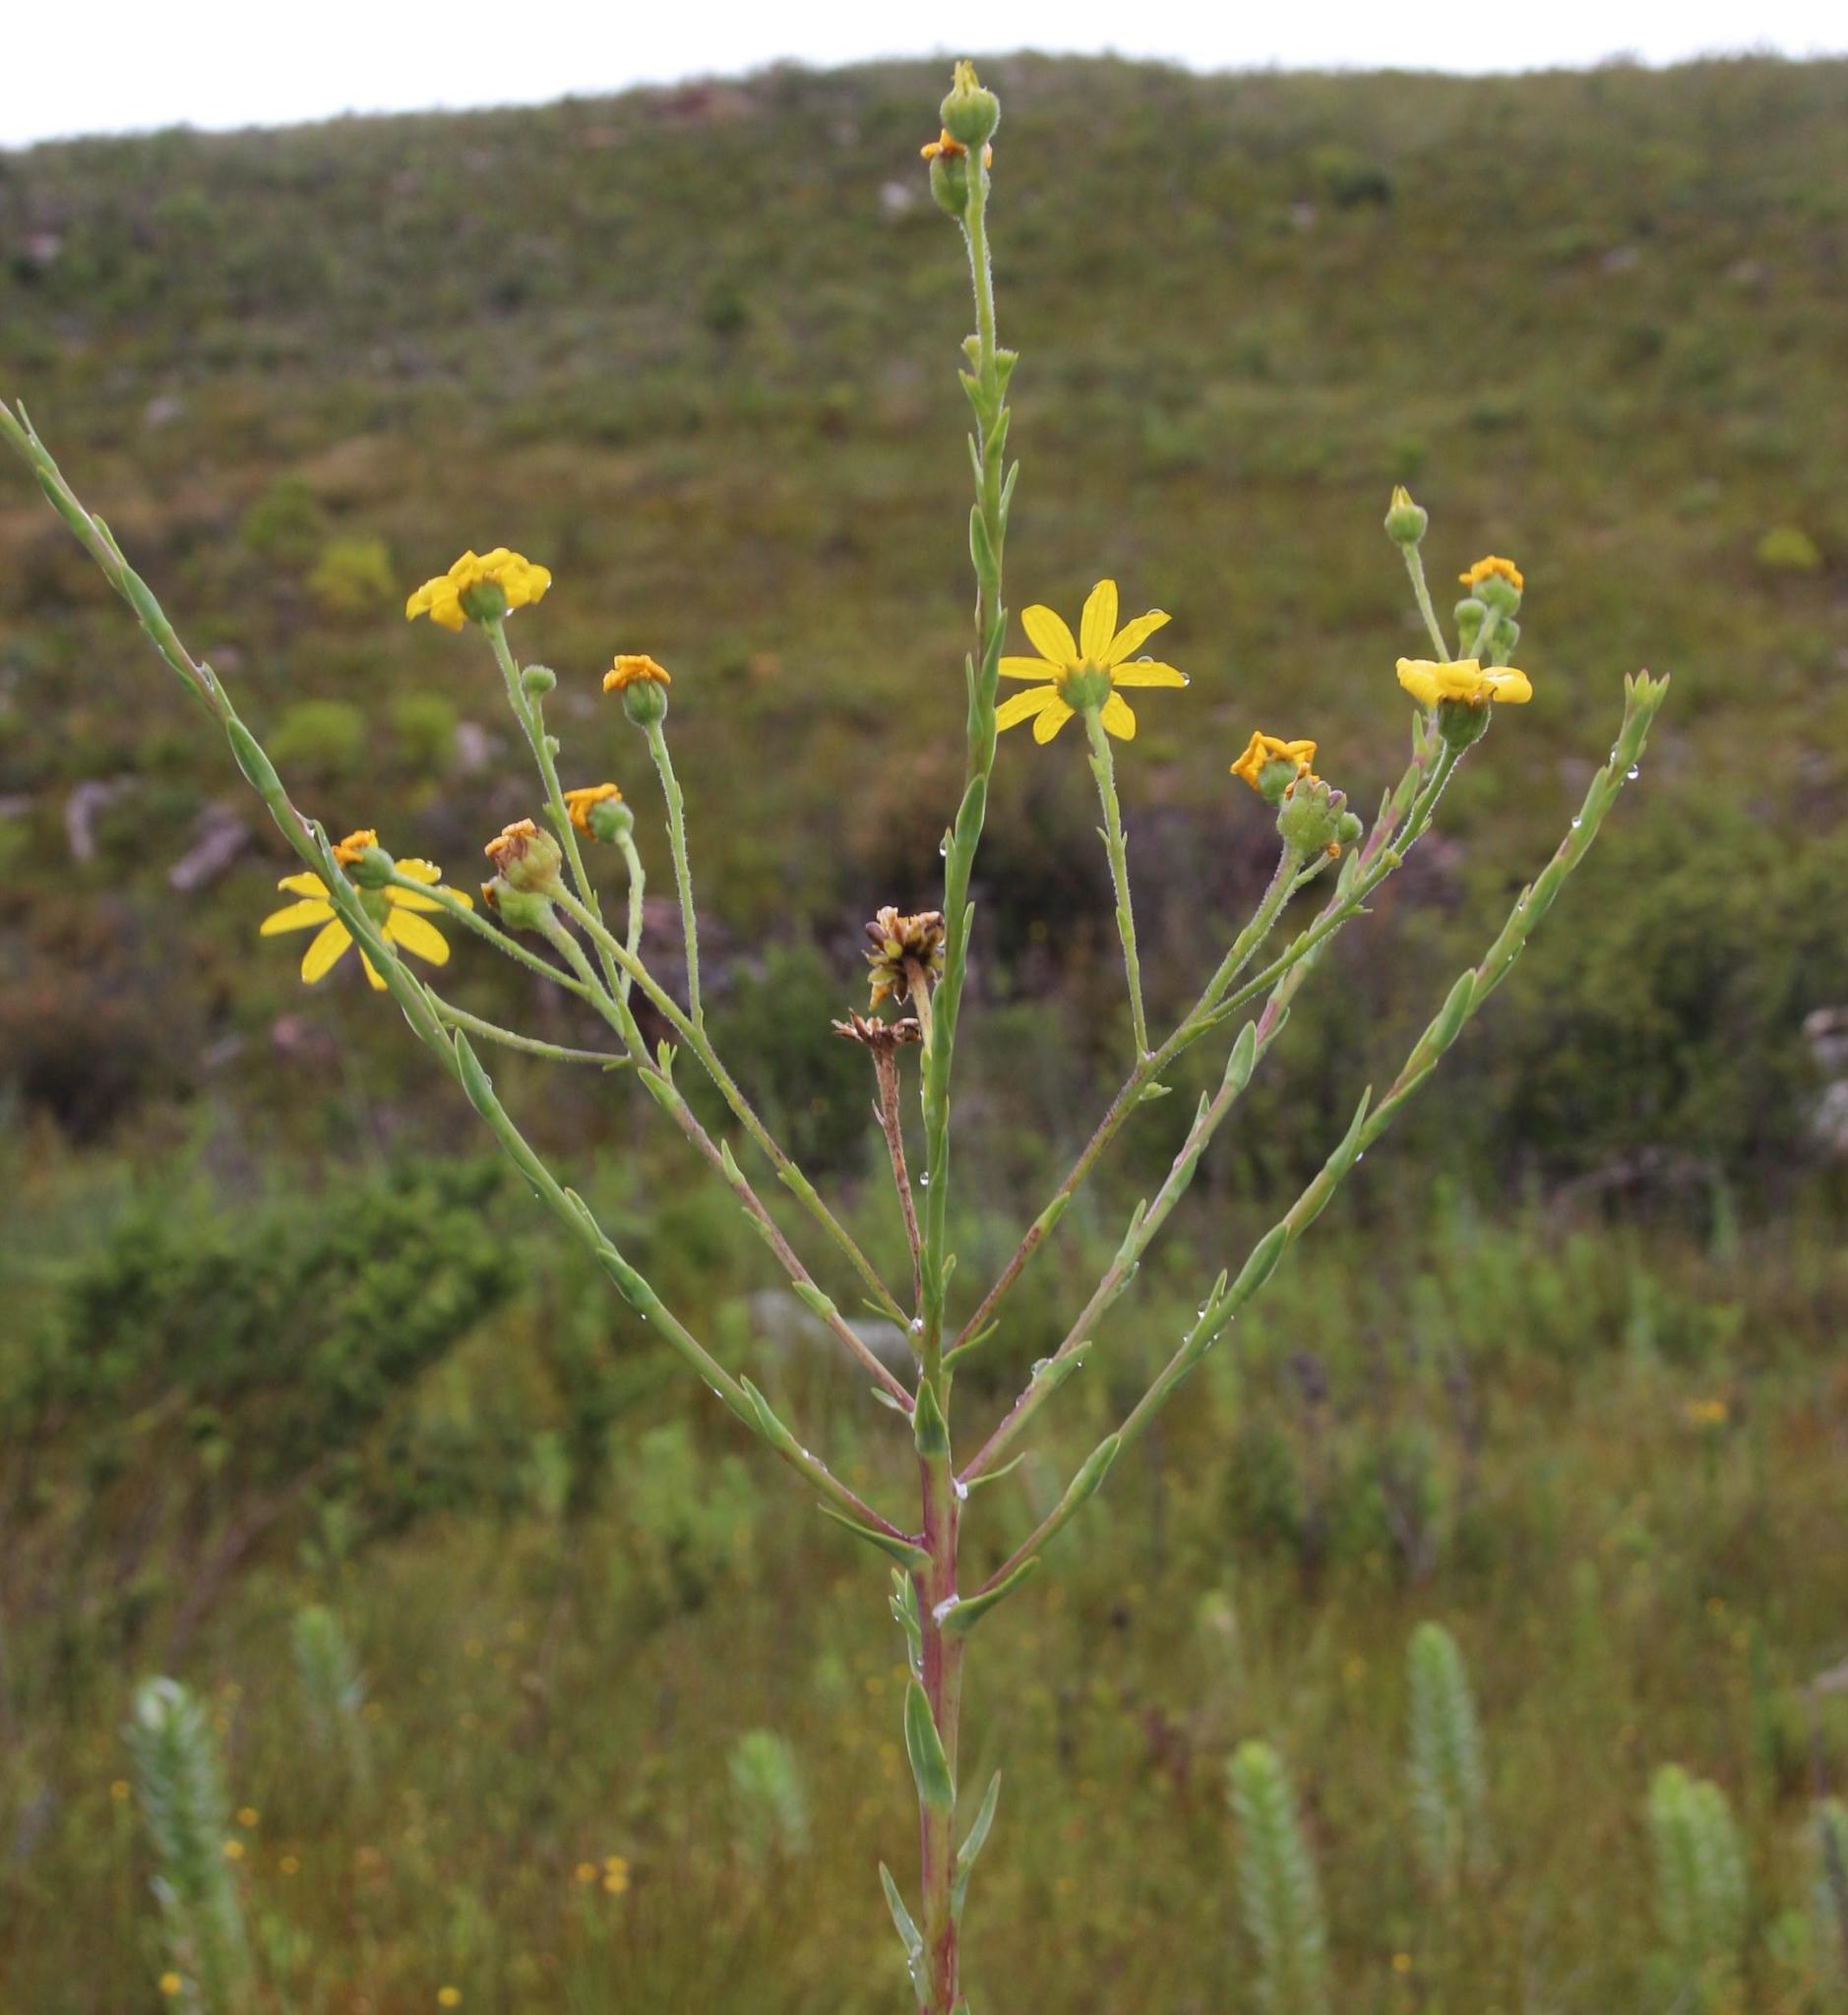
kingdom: Plantae
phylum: Tracheophyta
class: Magnoliopsida
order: Asterales
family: Asteraceae
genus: Osteospermum
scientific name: Osteospermum corymbosum
